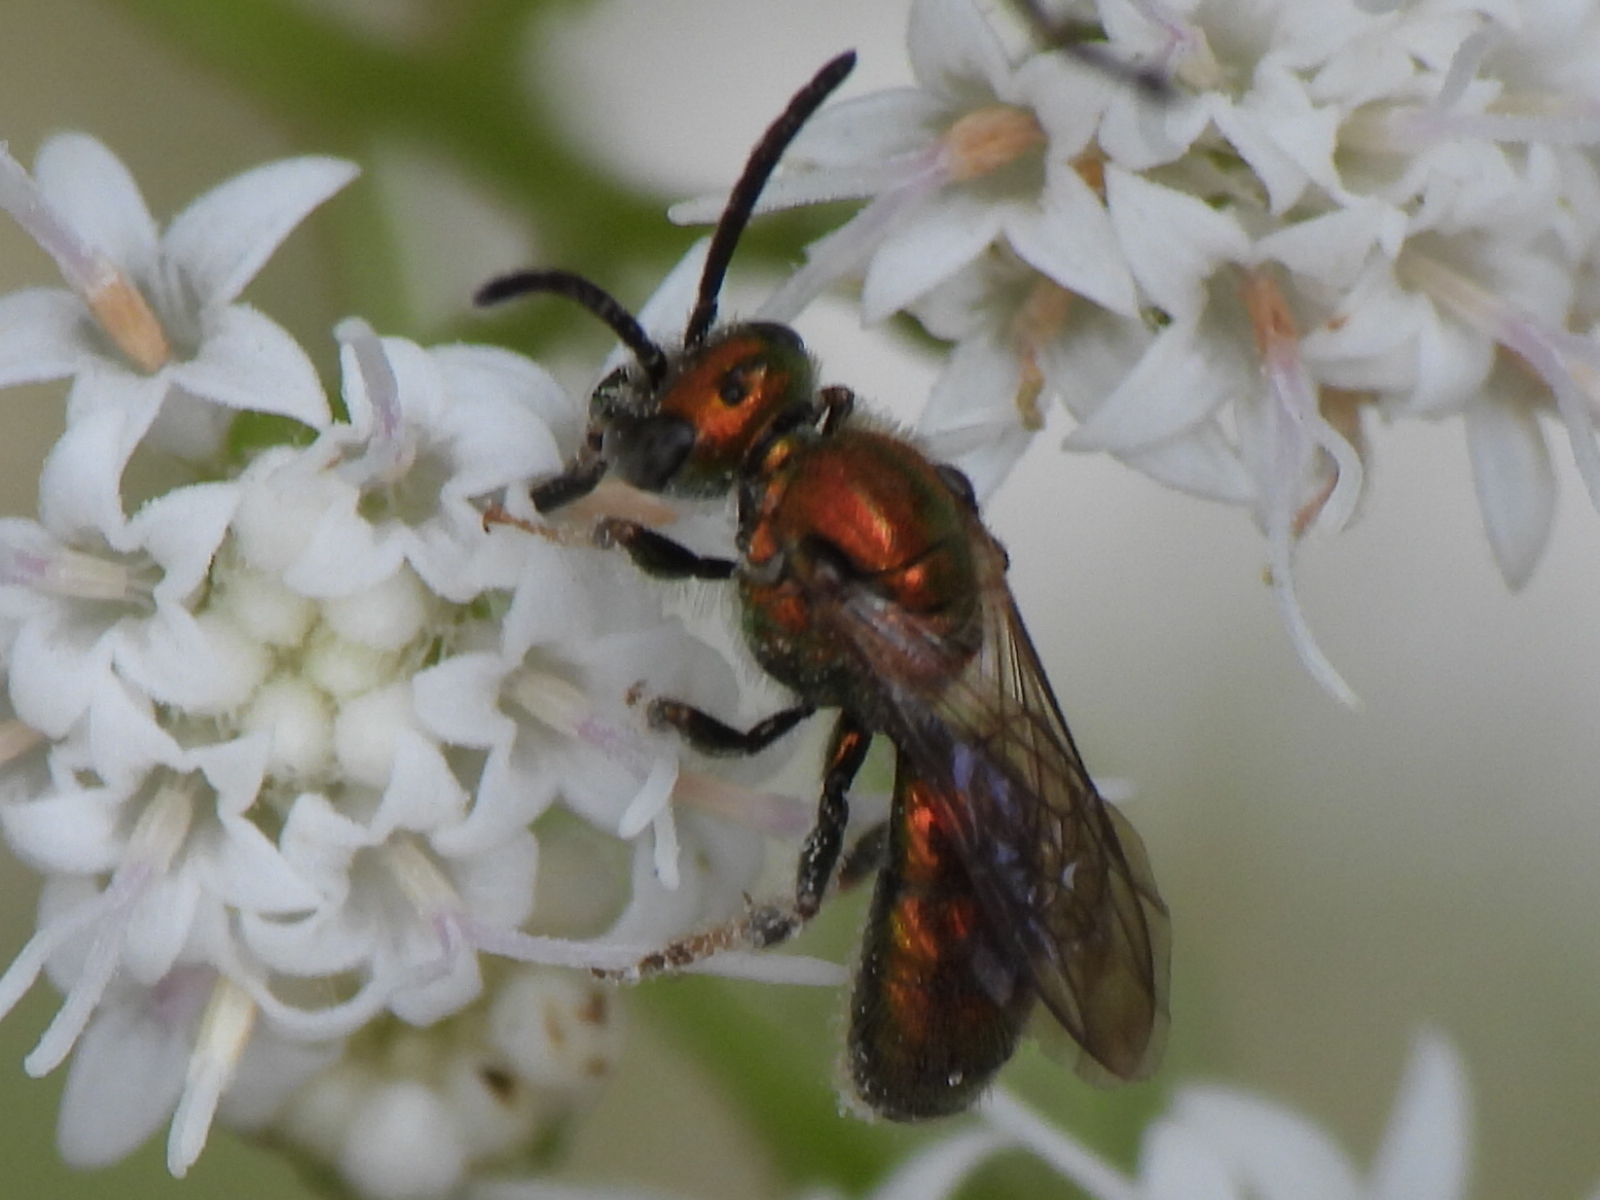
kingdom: Animalia
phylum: Arthropoda
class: Insecta
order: Hymenoptera
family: Halictidae
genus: Augochlora
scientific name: Augochlora pura
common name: Pure green sweat bee
